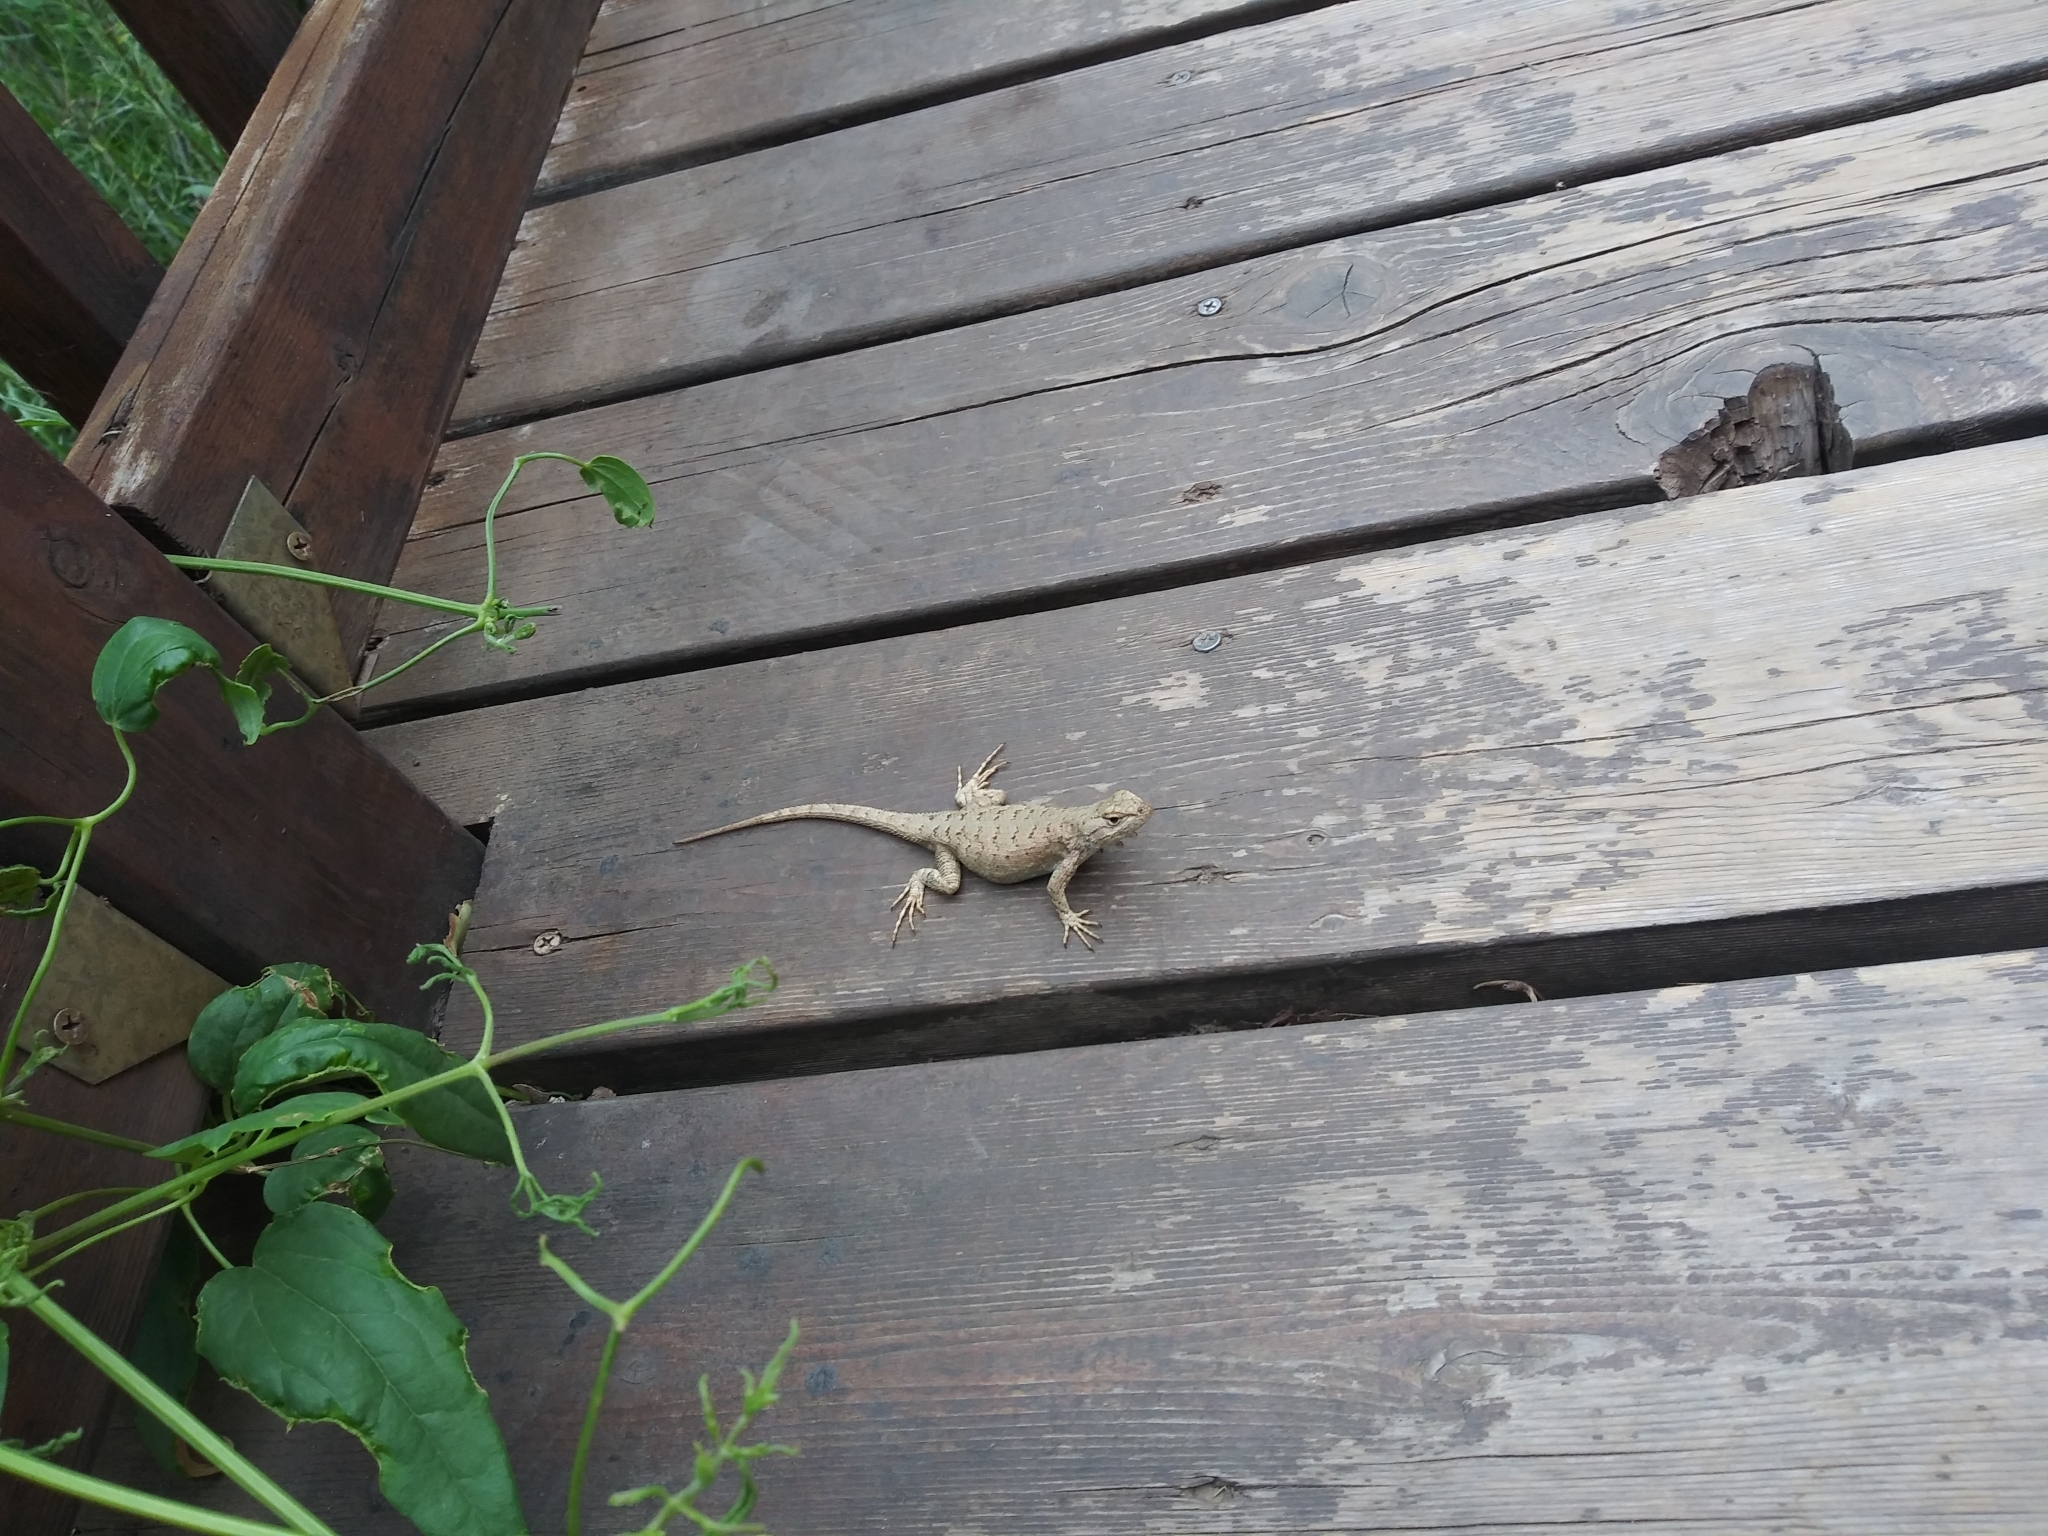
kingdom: Animalia
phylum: Chordata
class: Squamata
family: Phrynosomatidae
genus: Sceloporus
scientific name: Sceloporus tristichus
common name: Plateau fence lizard
